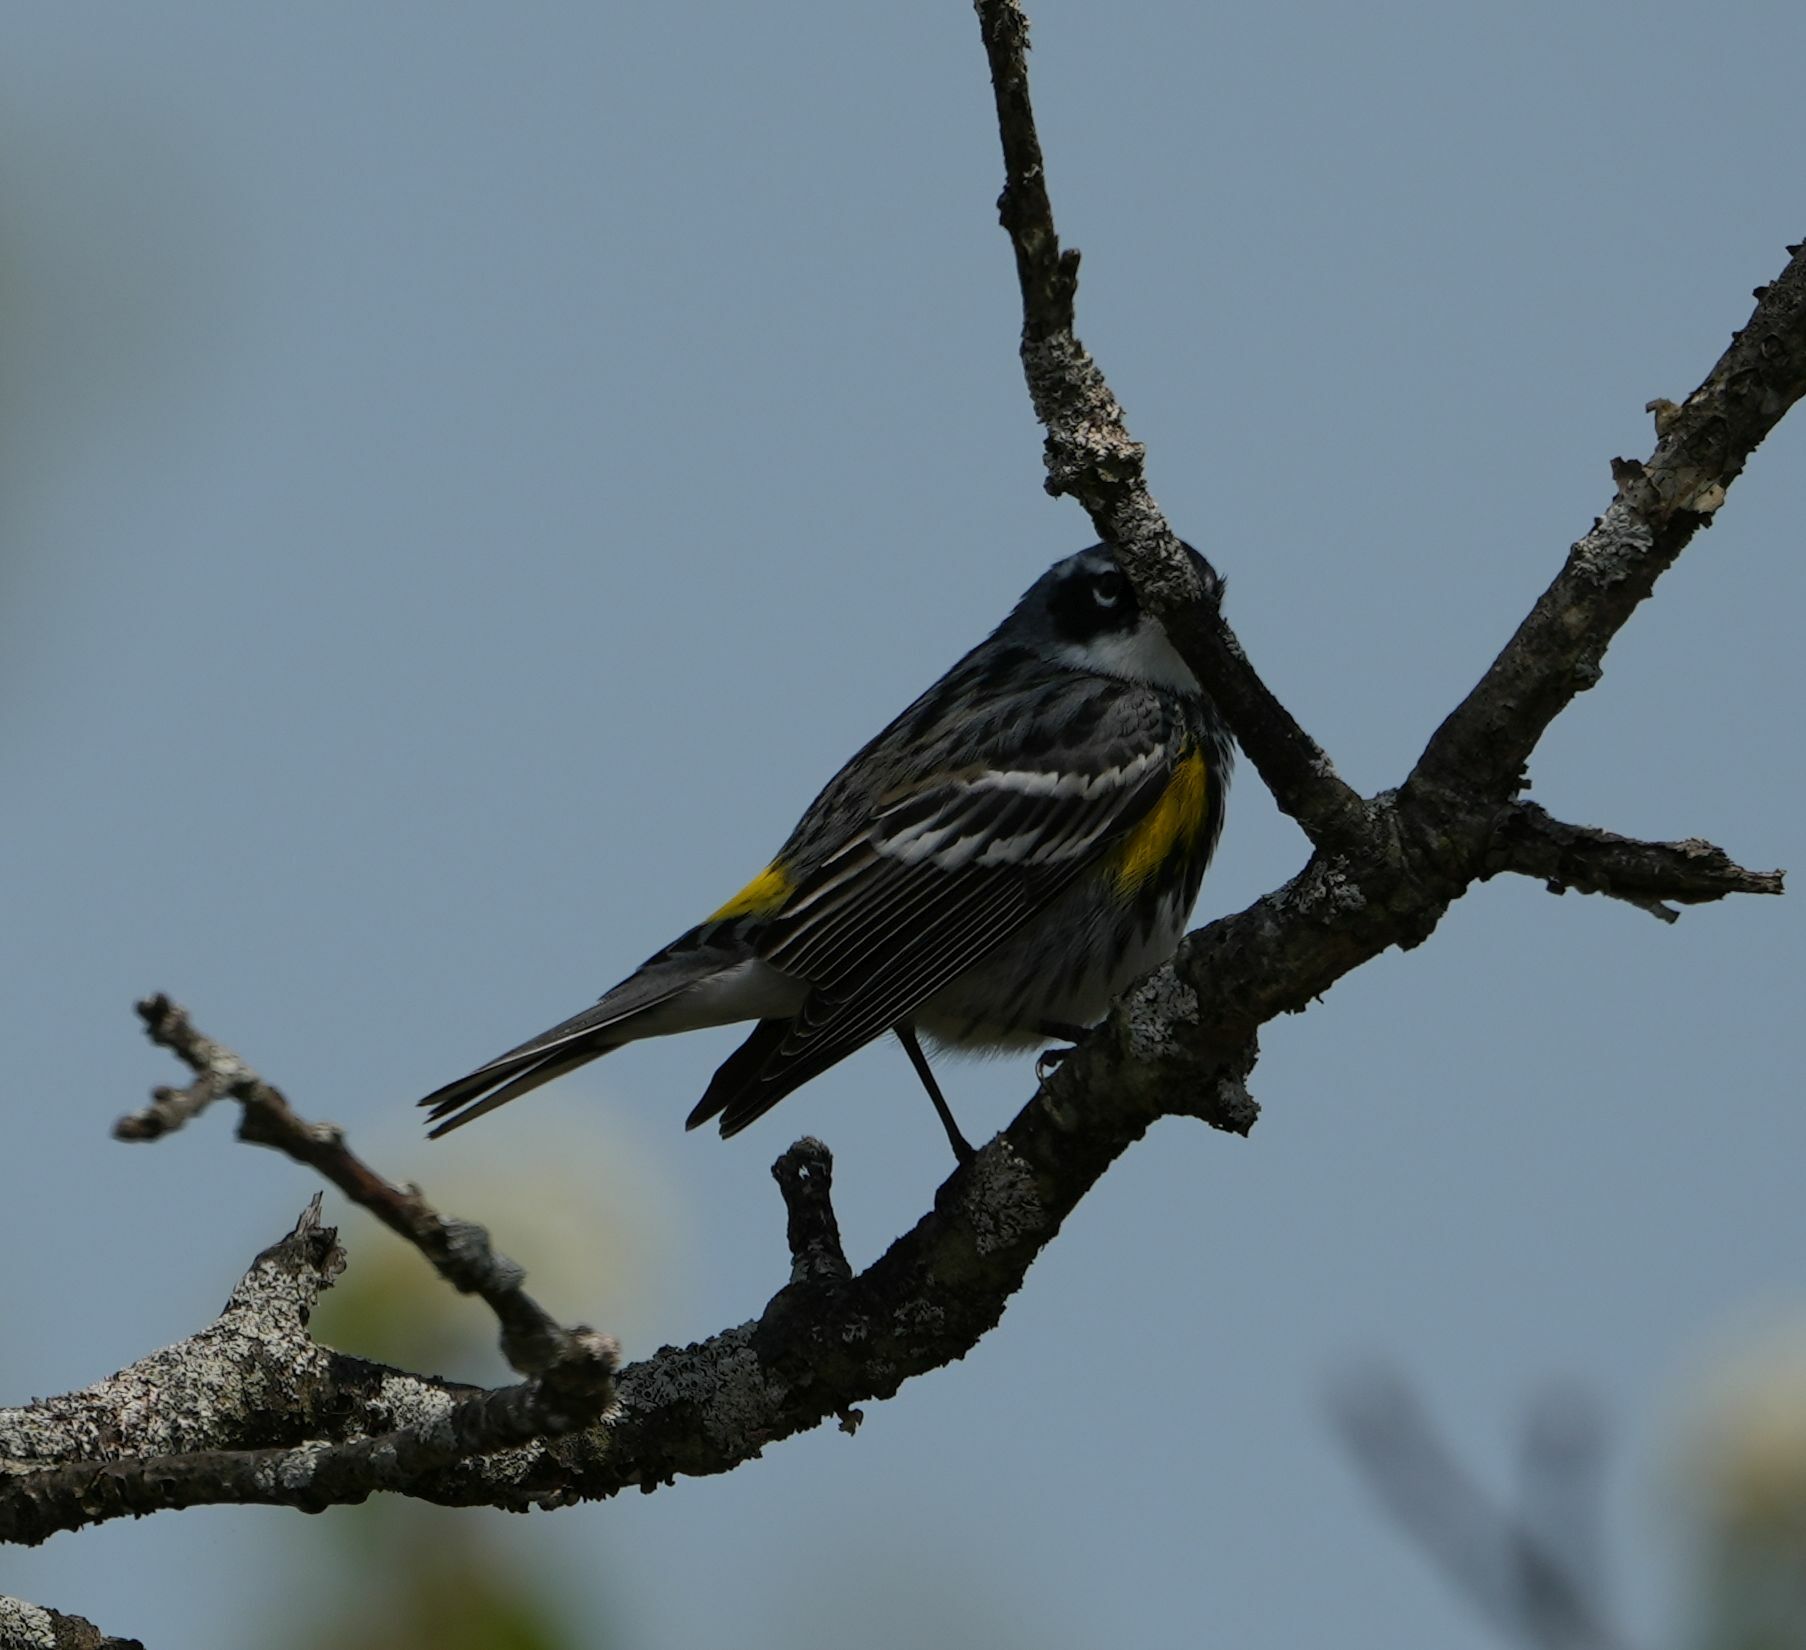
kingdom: Animalia
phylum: Chordata
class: Aves
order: Passeriformes
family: Parulidae
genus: Setophaga
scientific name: Setophaga coronata
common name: Myrtle warbler
